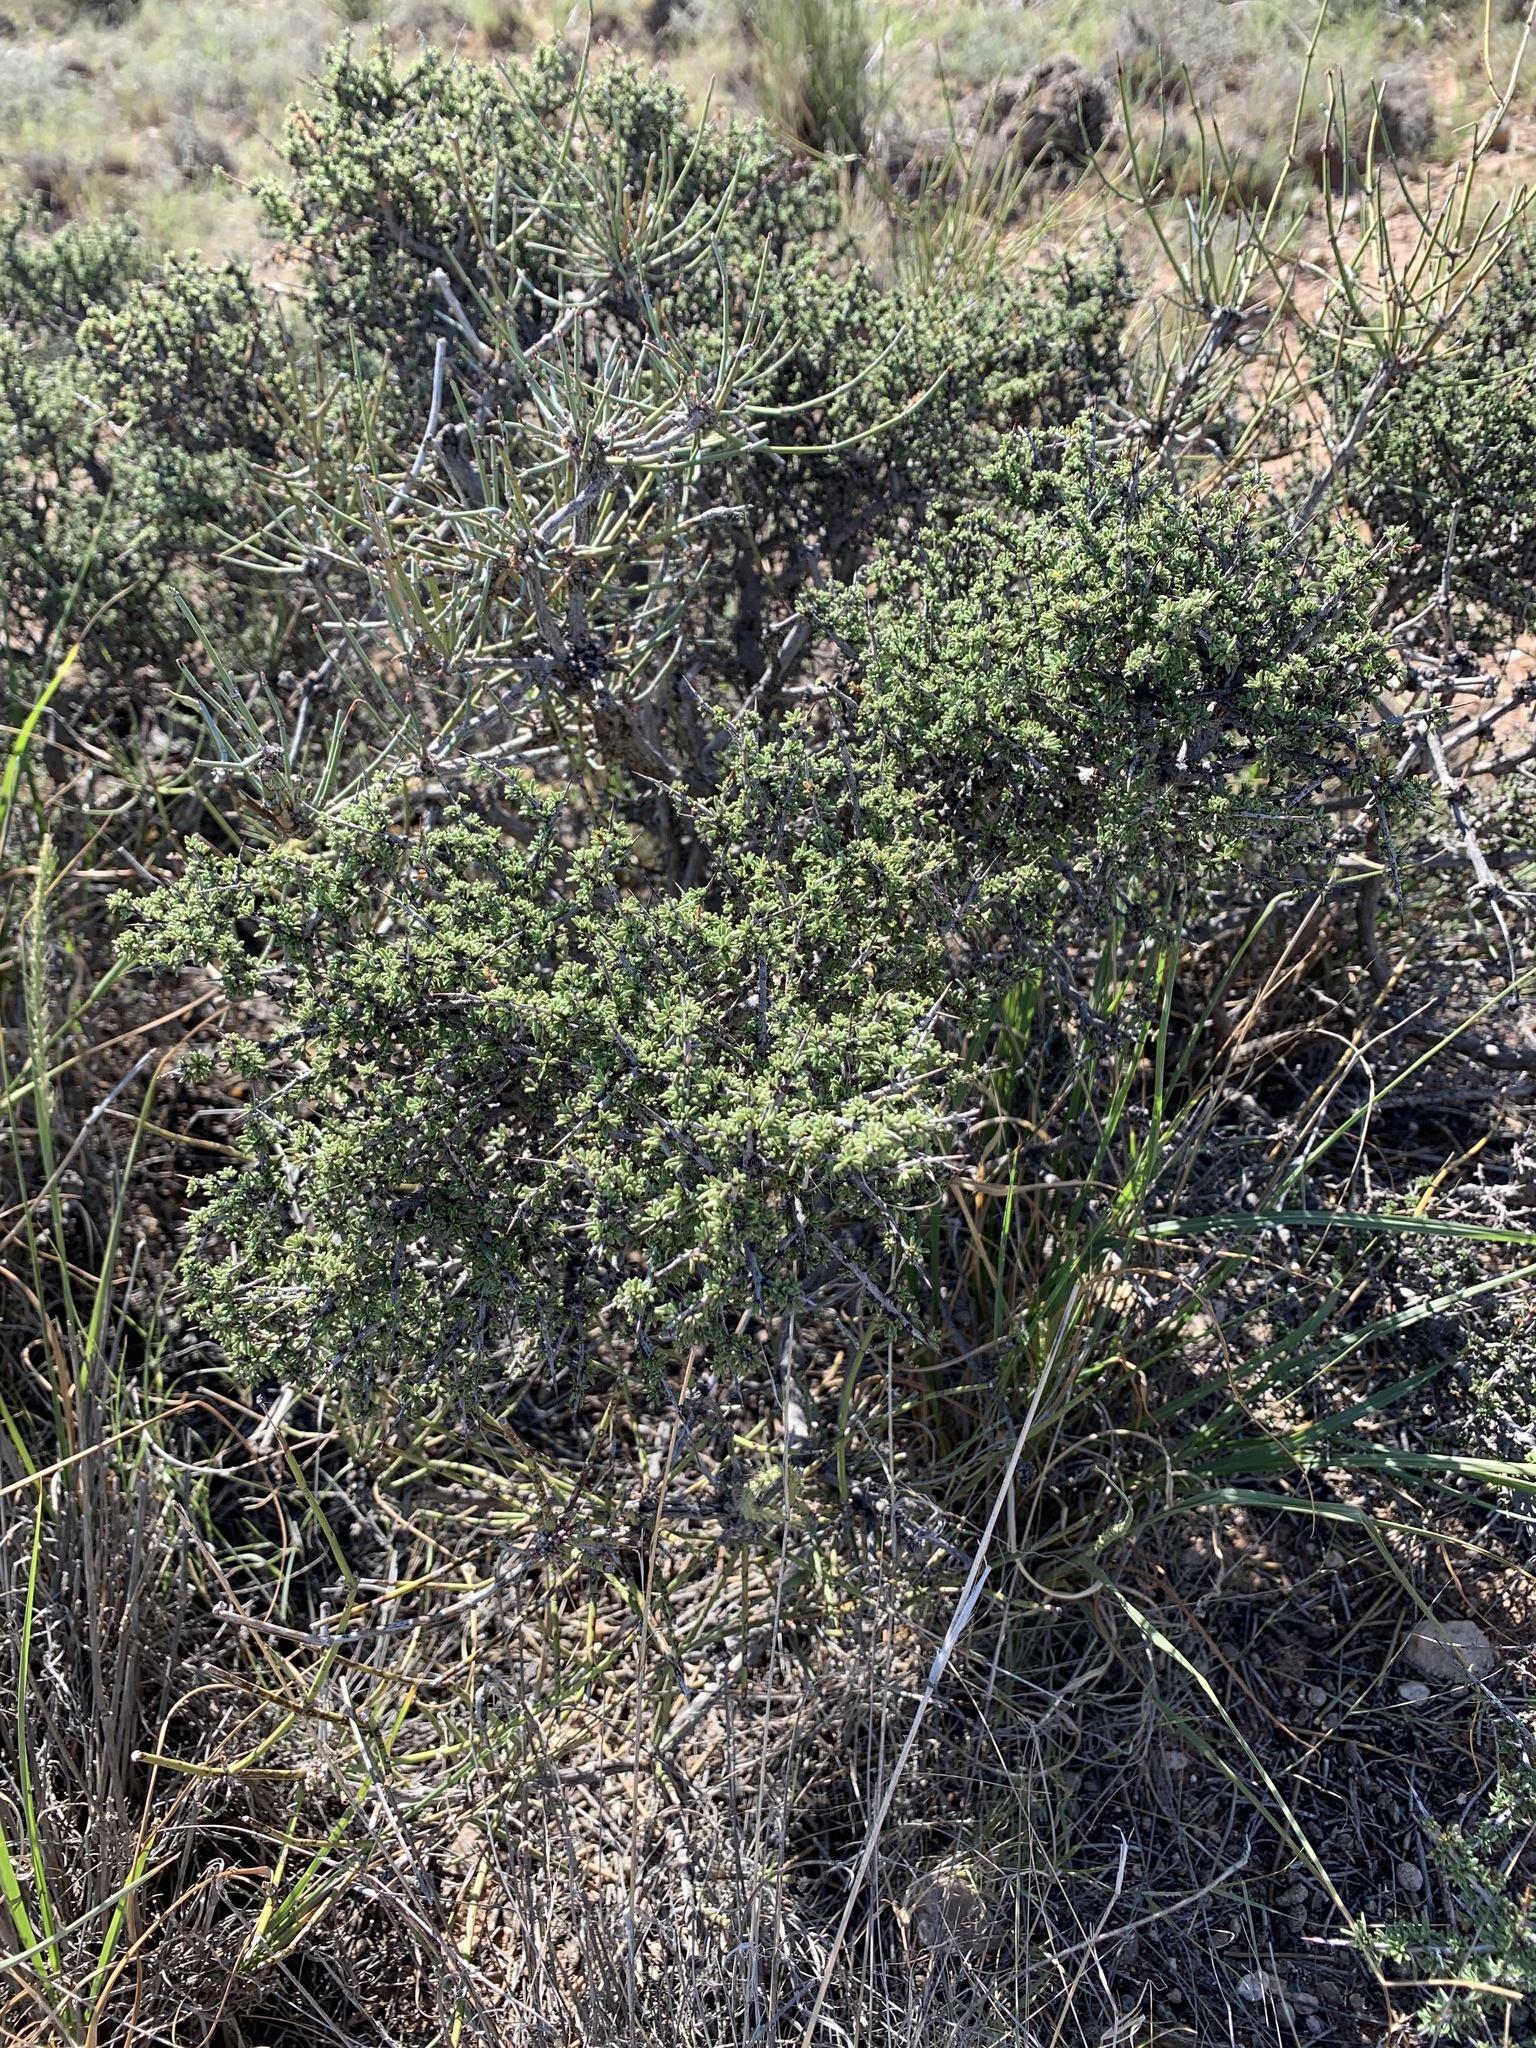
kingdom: Plantae
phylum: Tracheophyta
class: Magnoliopsida
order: Rosales
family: Rhamnaceae
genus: Condalia
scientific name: Condalia ericoides
